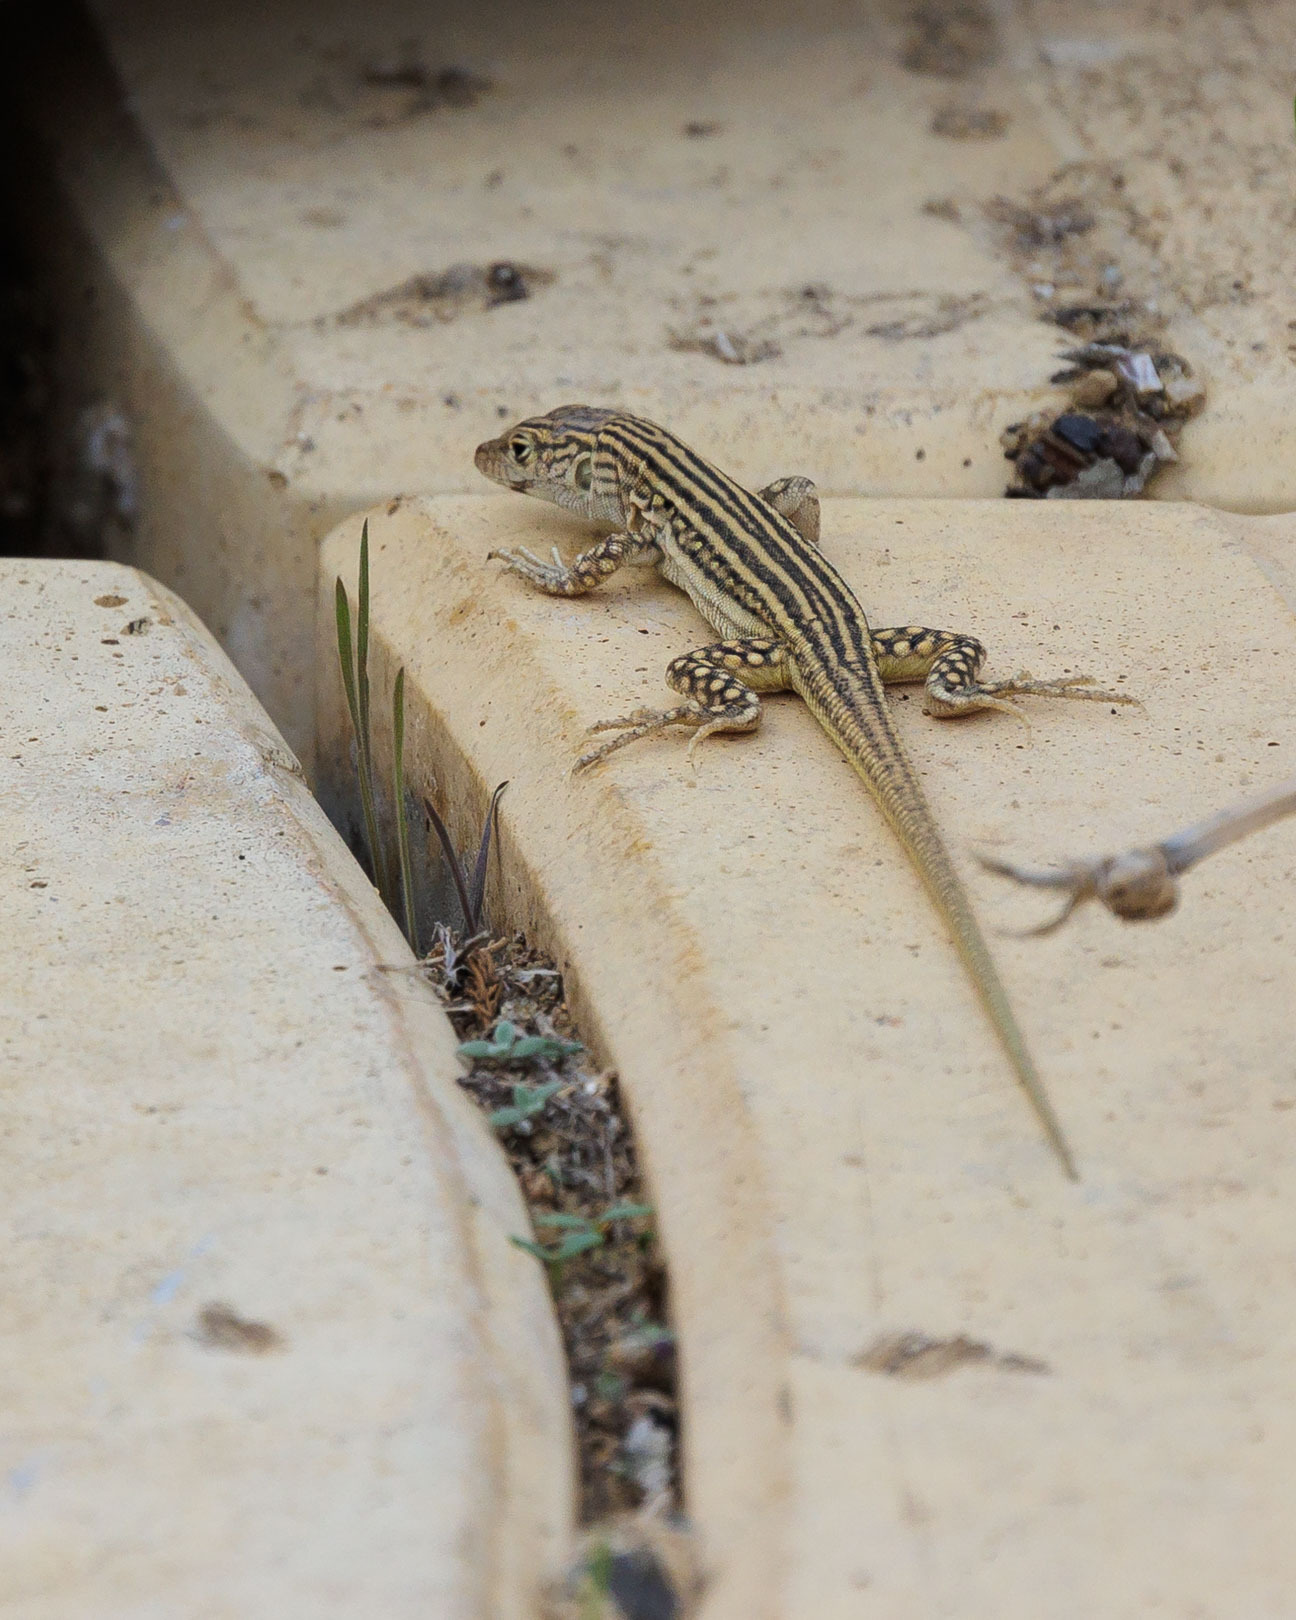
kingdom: Animalia
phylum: Chordata
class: Squamata
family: Lacertidae
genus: Eremias
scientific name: Eremias velox
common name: Central asian racerunner
